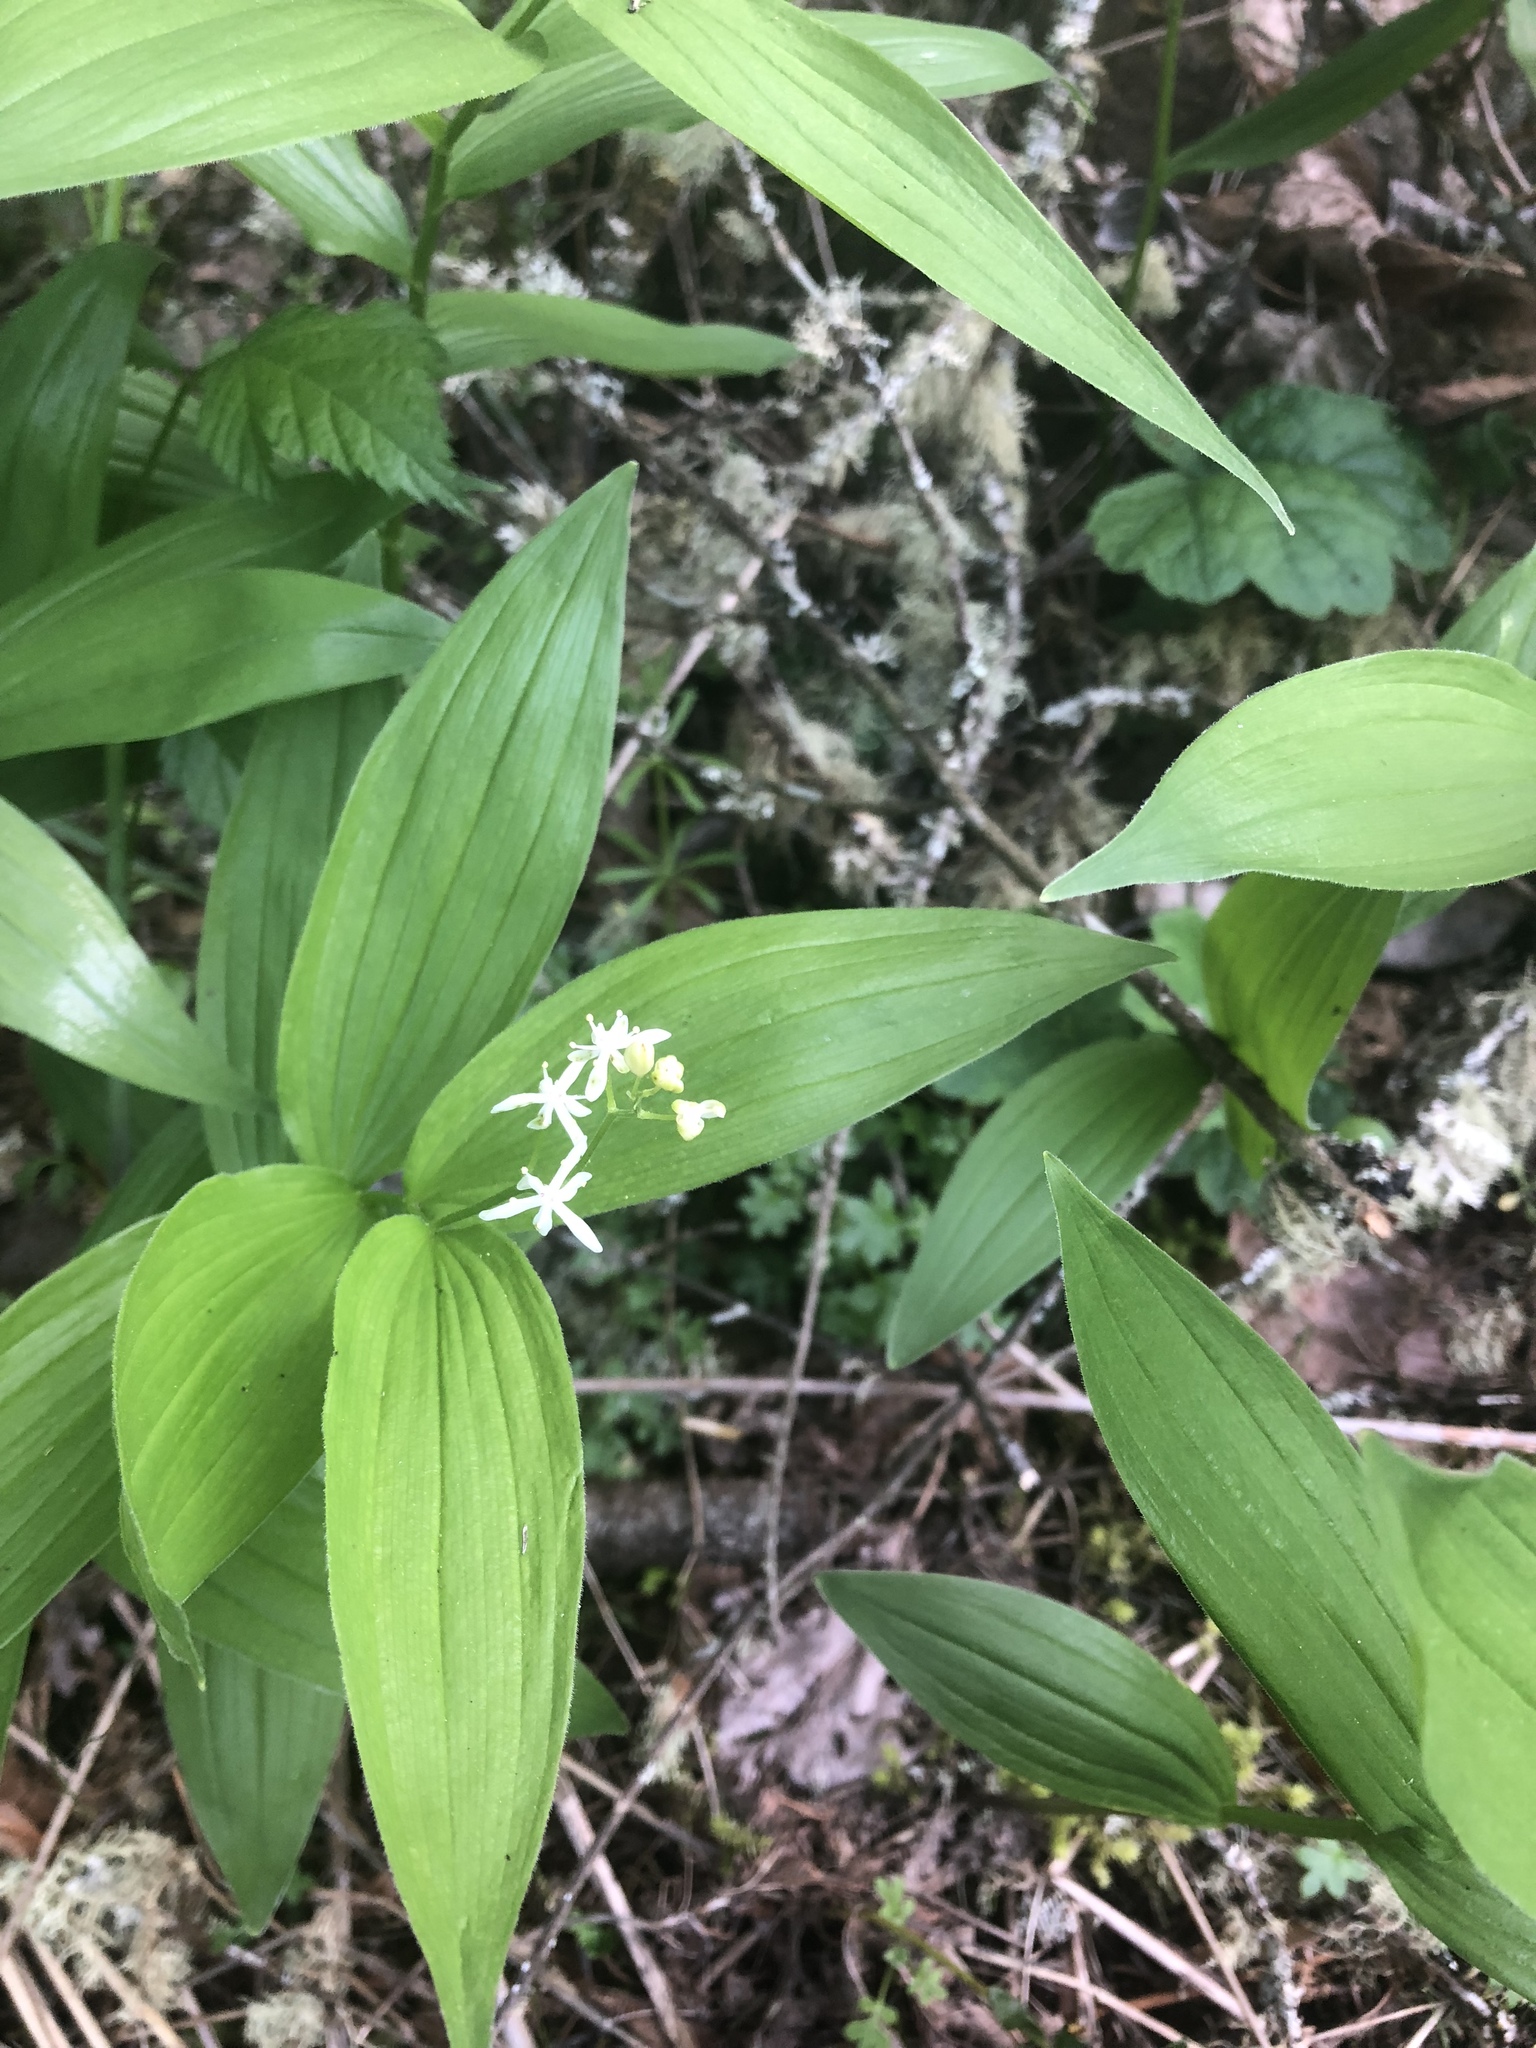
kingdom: Plantae
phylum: Tracheophyta
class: Liliopsida
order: Asparagales
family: Asparagaceae
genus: Maianthemum
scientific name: Maianthemum stellatum
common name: Little false solomon's seal
